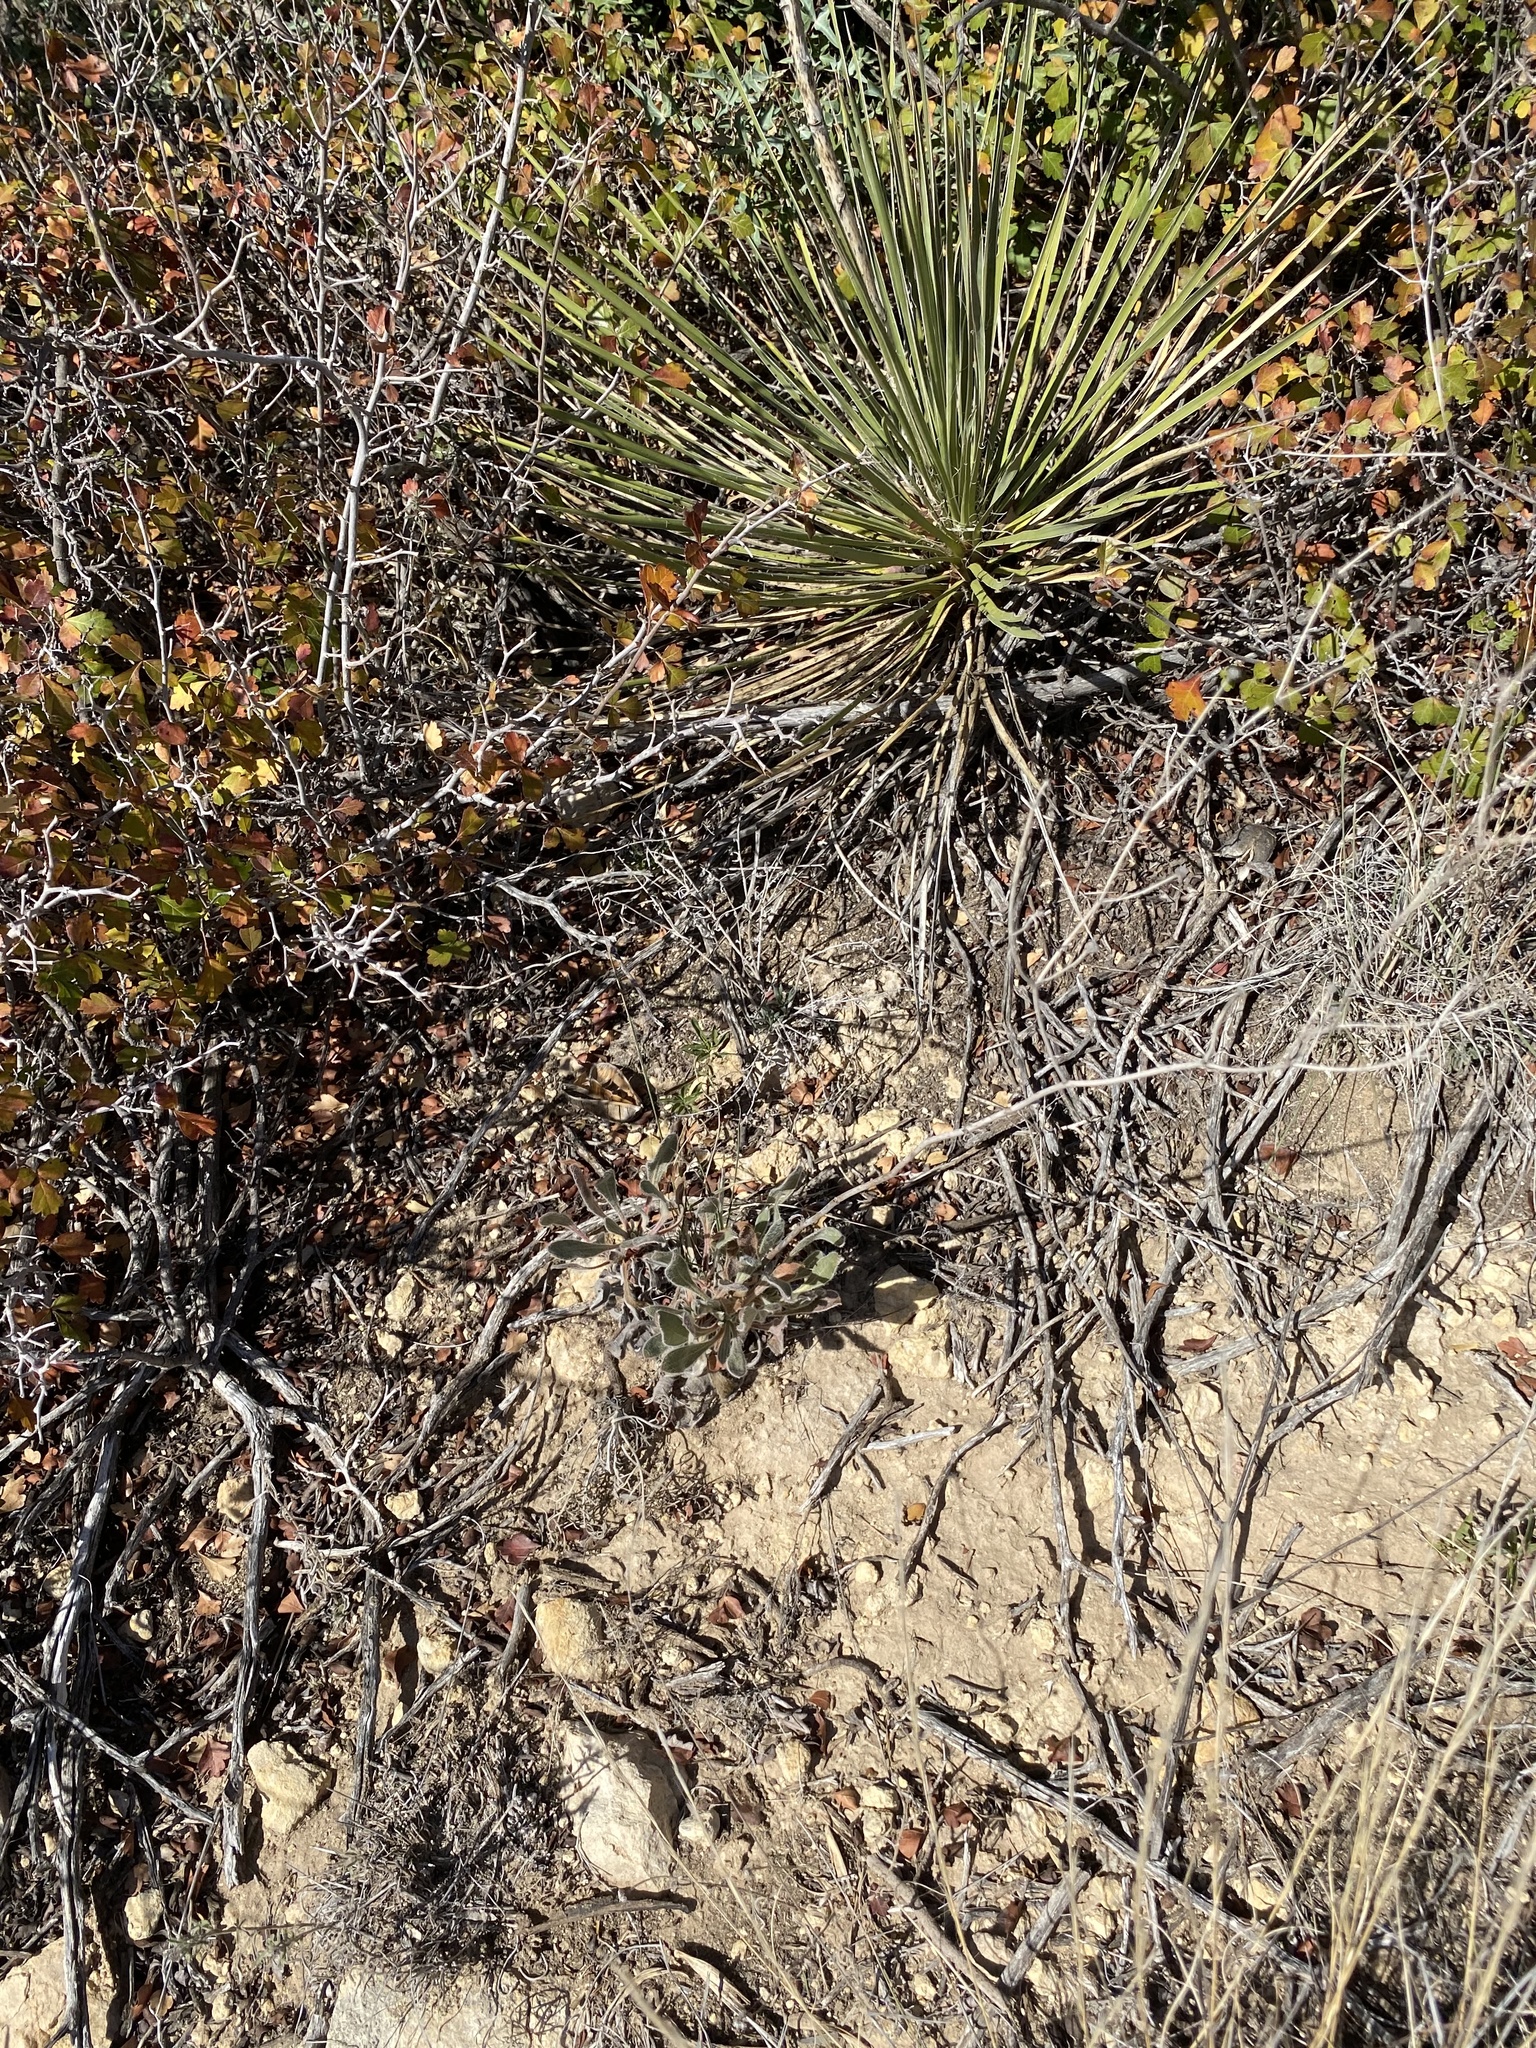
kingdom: Plantae
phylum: Tracheophyta
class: Magnoliopsida
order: Caryophyllales
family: Polygonaceae
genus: Eriogonum
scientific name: Eriogonum nealleyi
